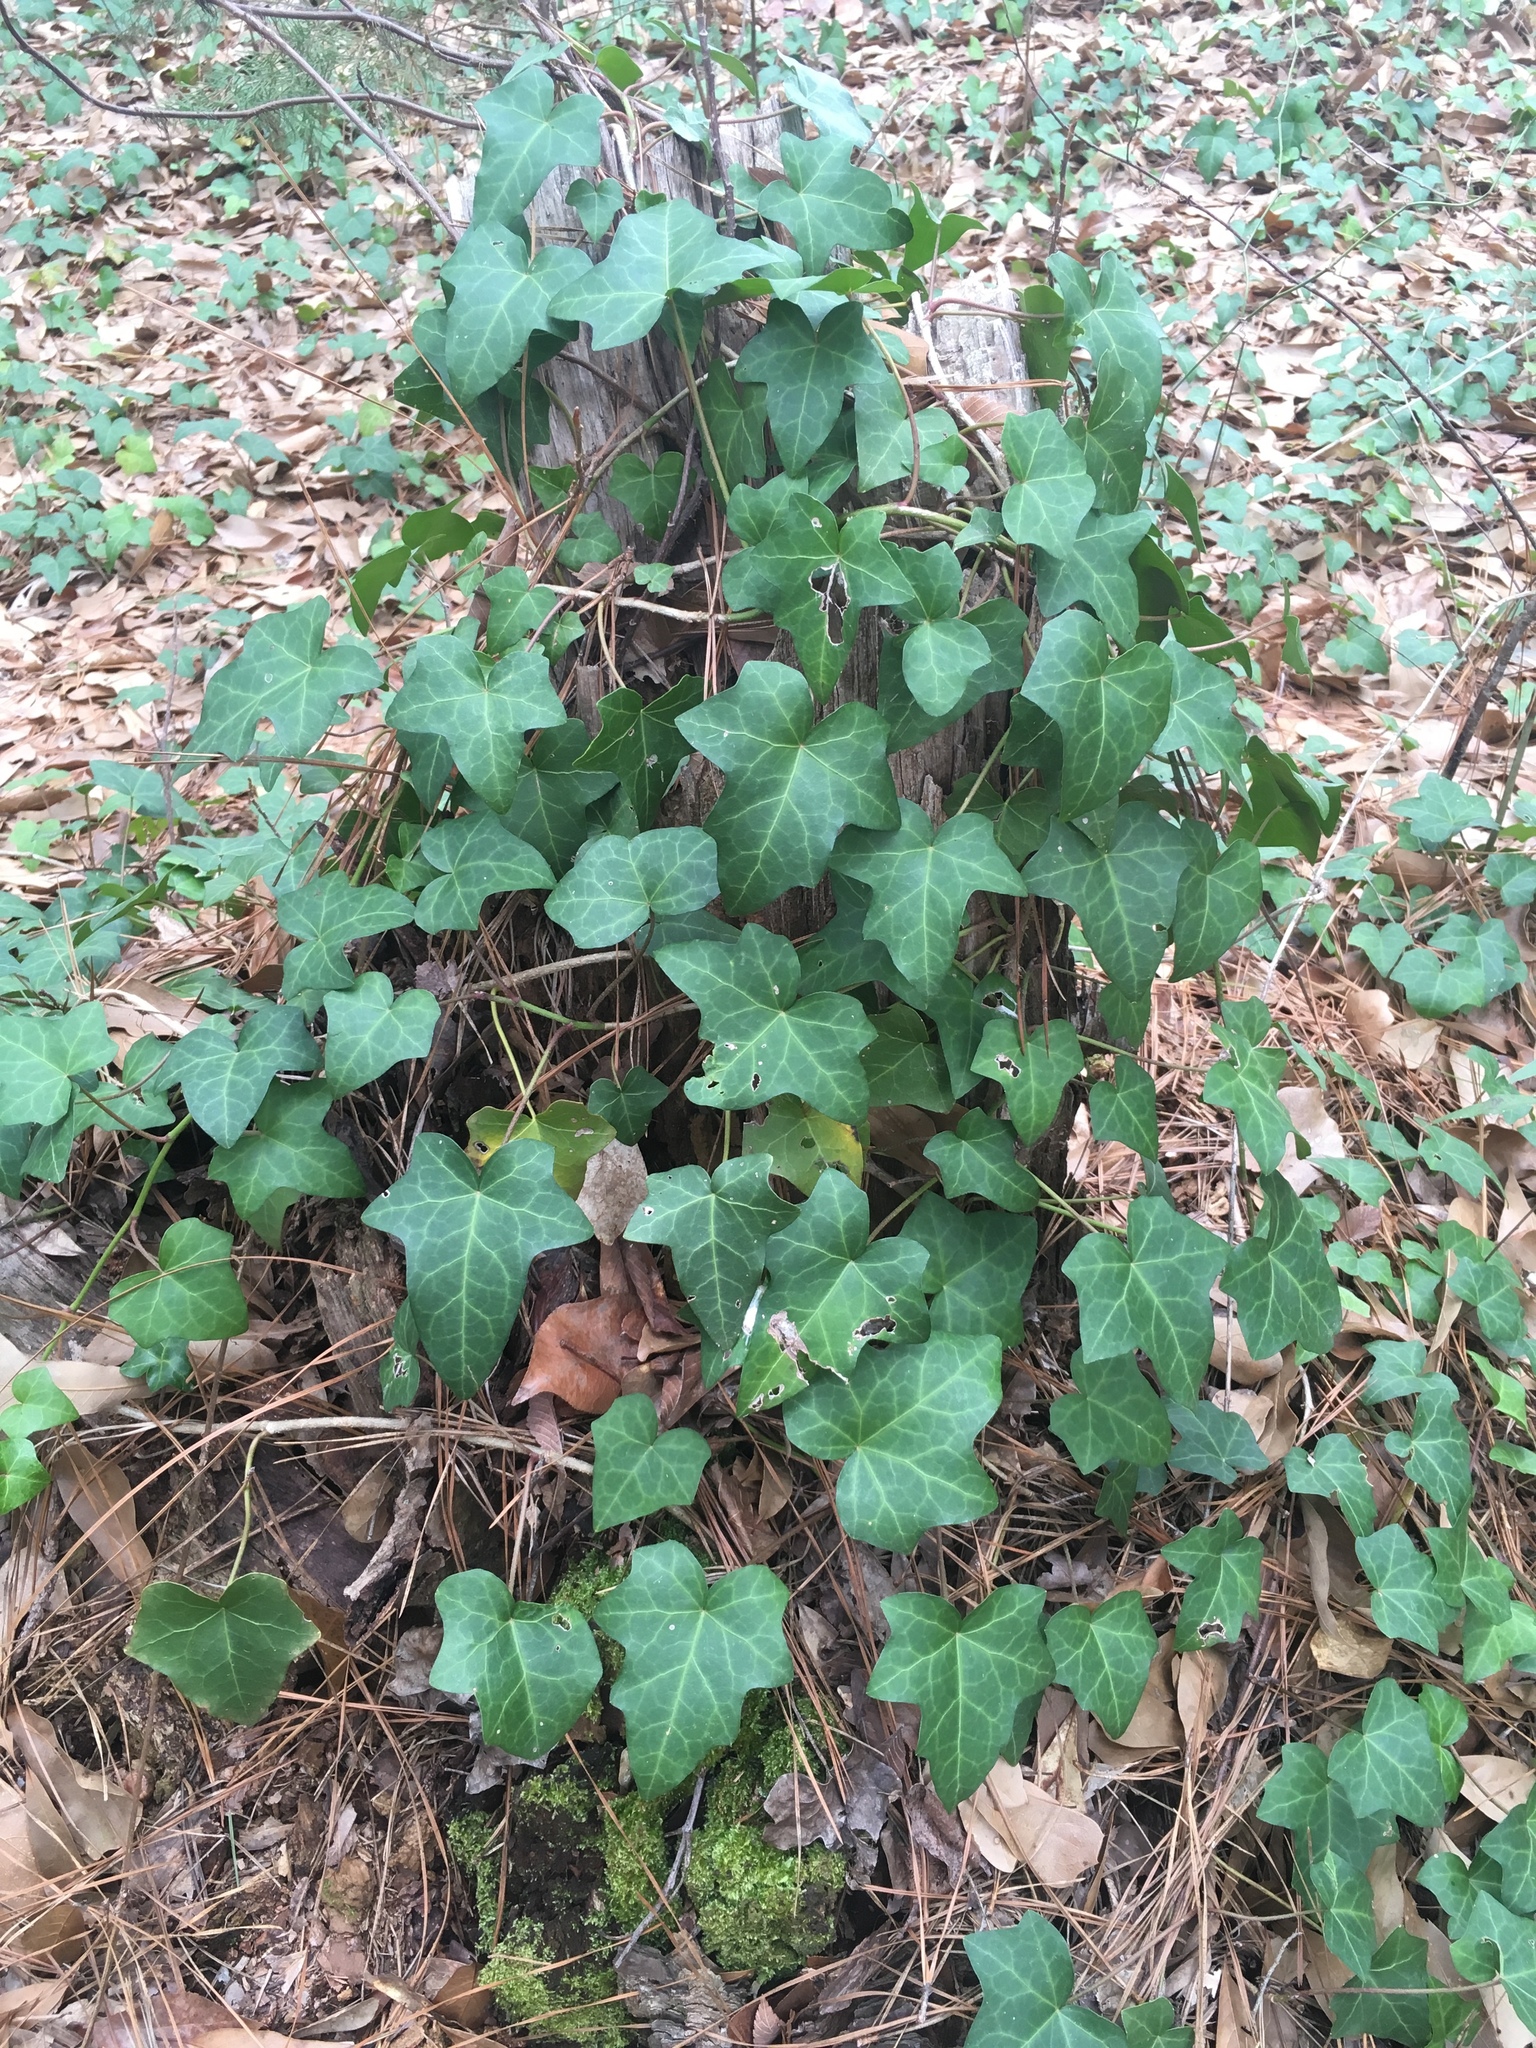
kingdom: Plantae
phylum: Tracheophyta
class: Magnoliopsida
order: Apiales
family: Araliaceae
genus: Hedera
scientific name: Hedera helix
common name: Ivy
